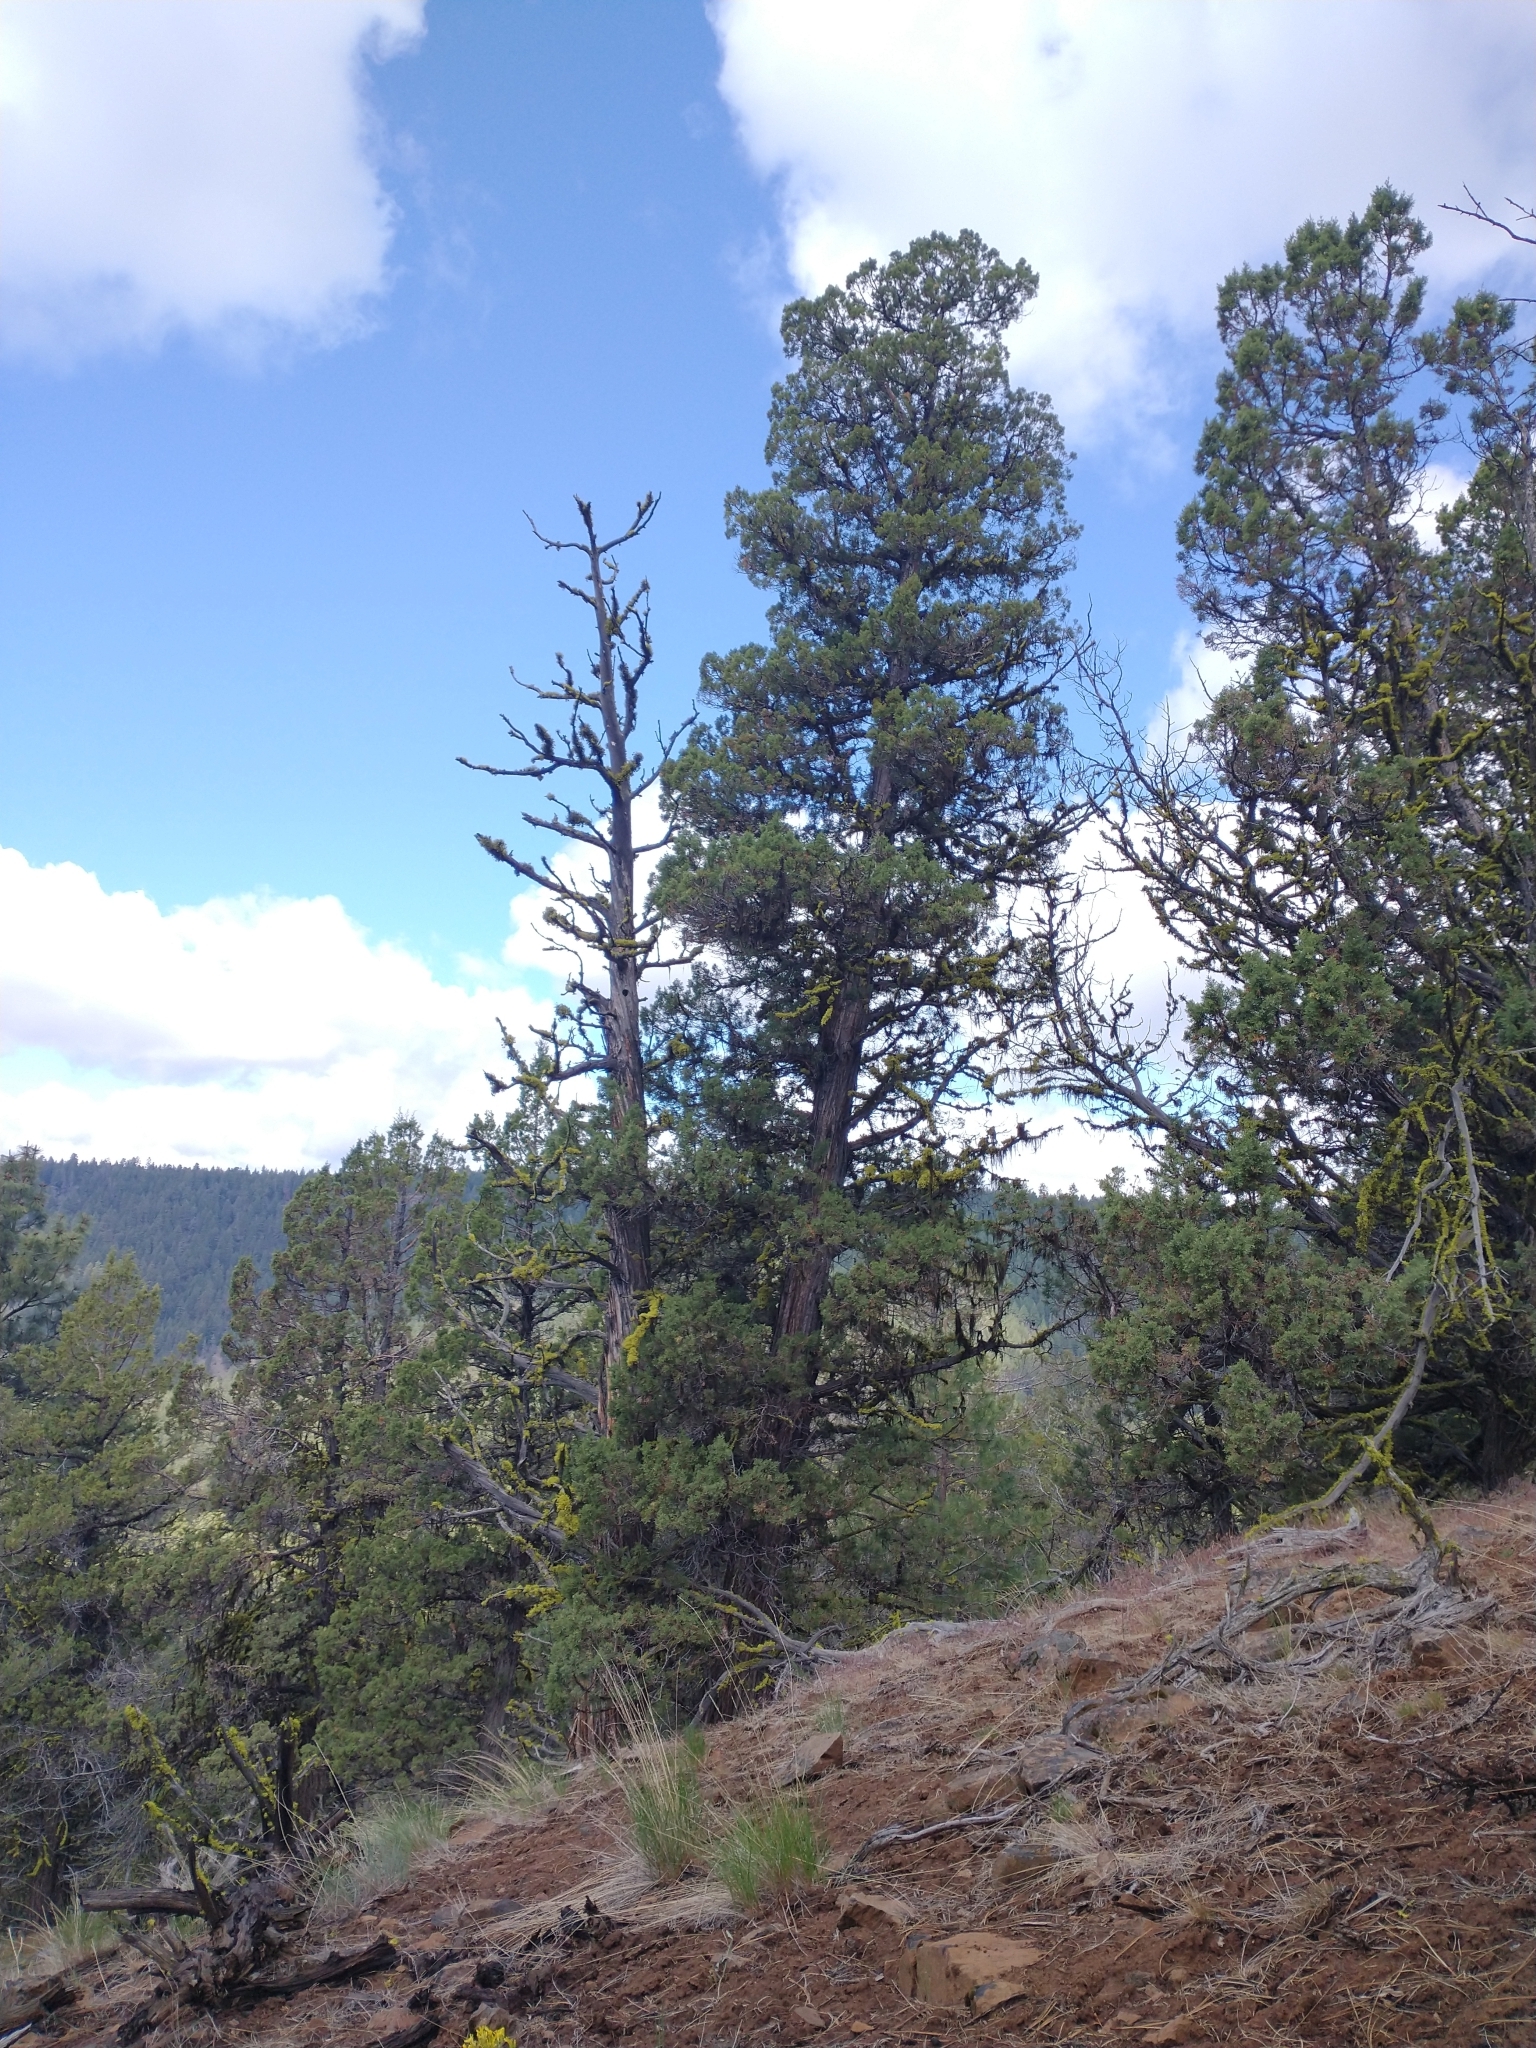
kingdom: Plantae
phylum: Tracheophyta
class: Pinopsida
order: Pinales
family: Cupressaceae
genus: Juniperus
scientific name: Juniperus occidentalis
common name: Western juniper
